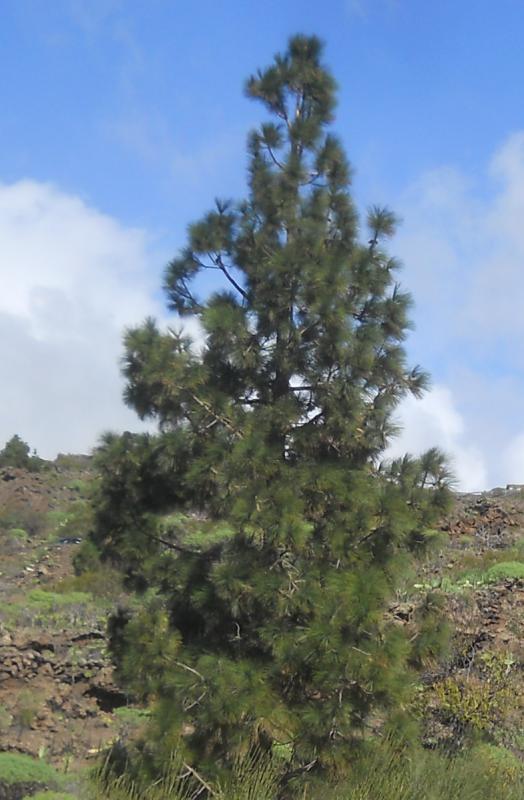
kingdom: Plantae
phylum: Tracheophyta
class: Pinopsida
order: Pinales
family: Pinaceae
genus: Pinus
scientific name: Pinus canariensis
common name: Canary islands pine
